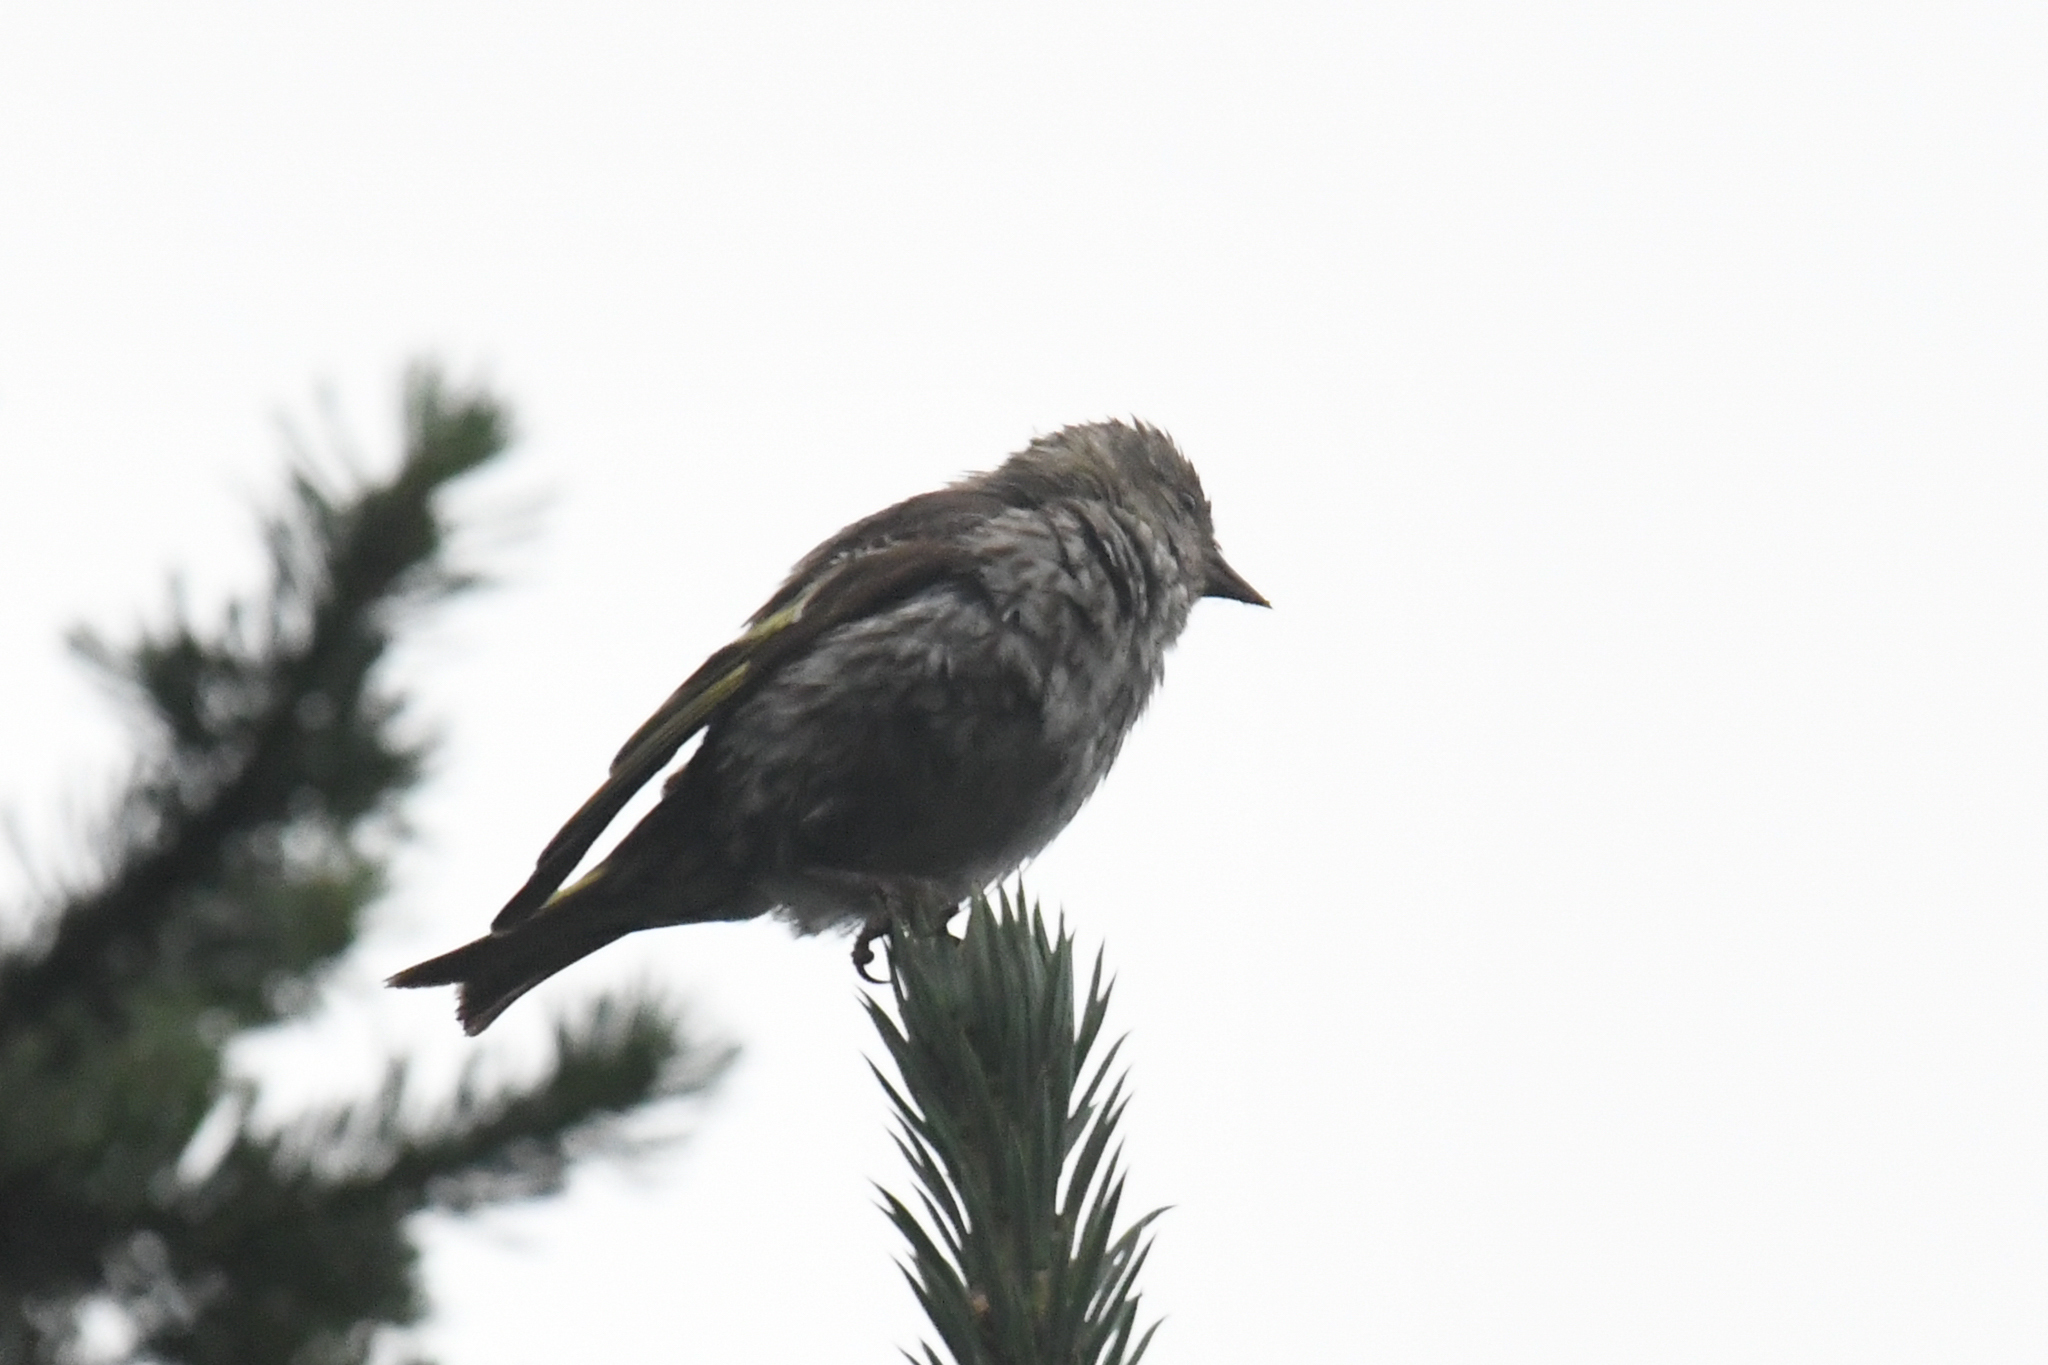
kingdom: Animalia
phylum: Chordata
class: Aves
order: Passeriformes
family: Fringillidae
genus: Spinus
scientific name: Spinus pinus
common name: Pine siskin
